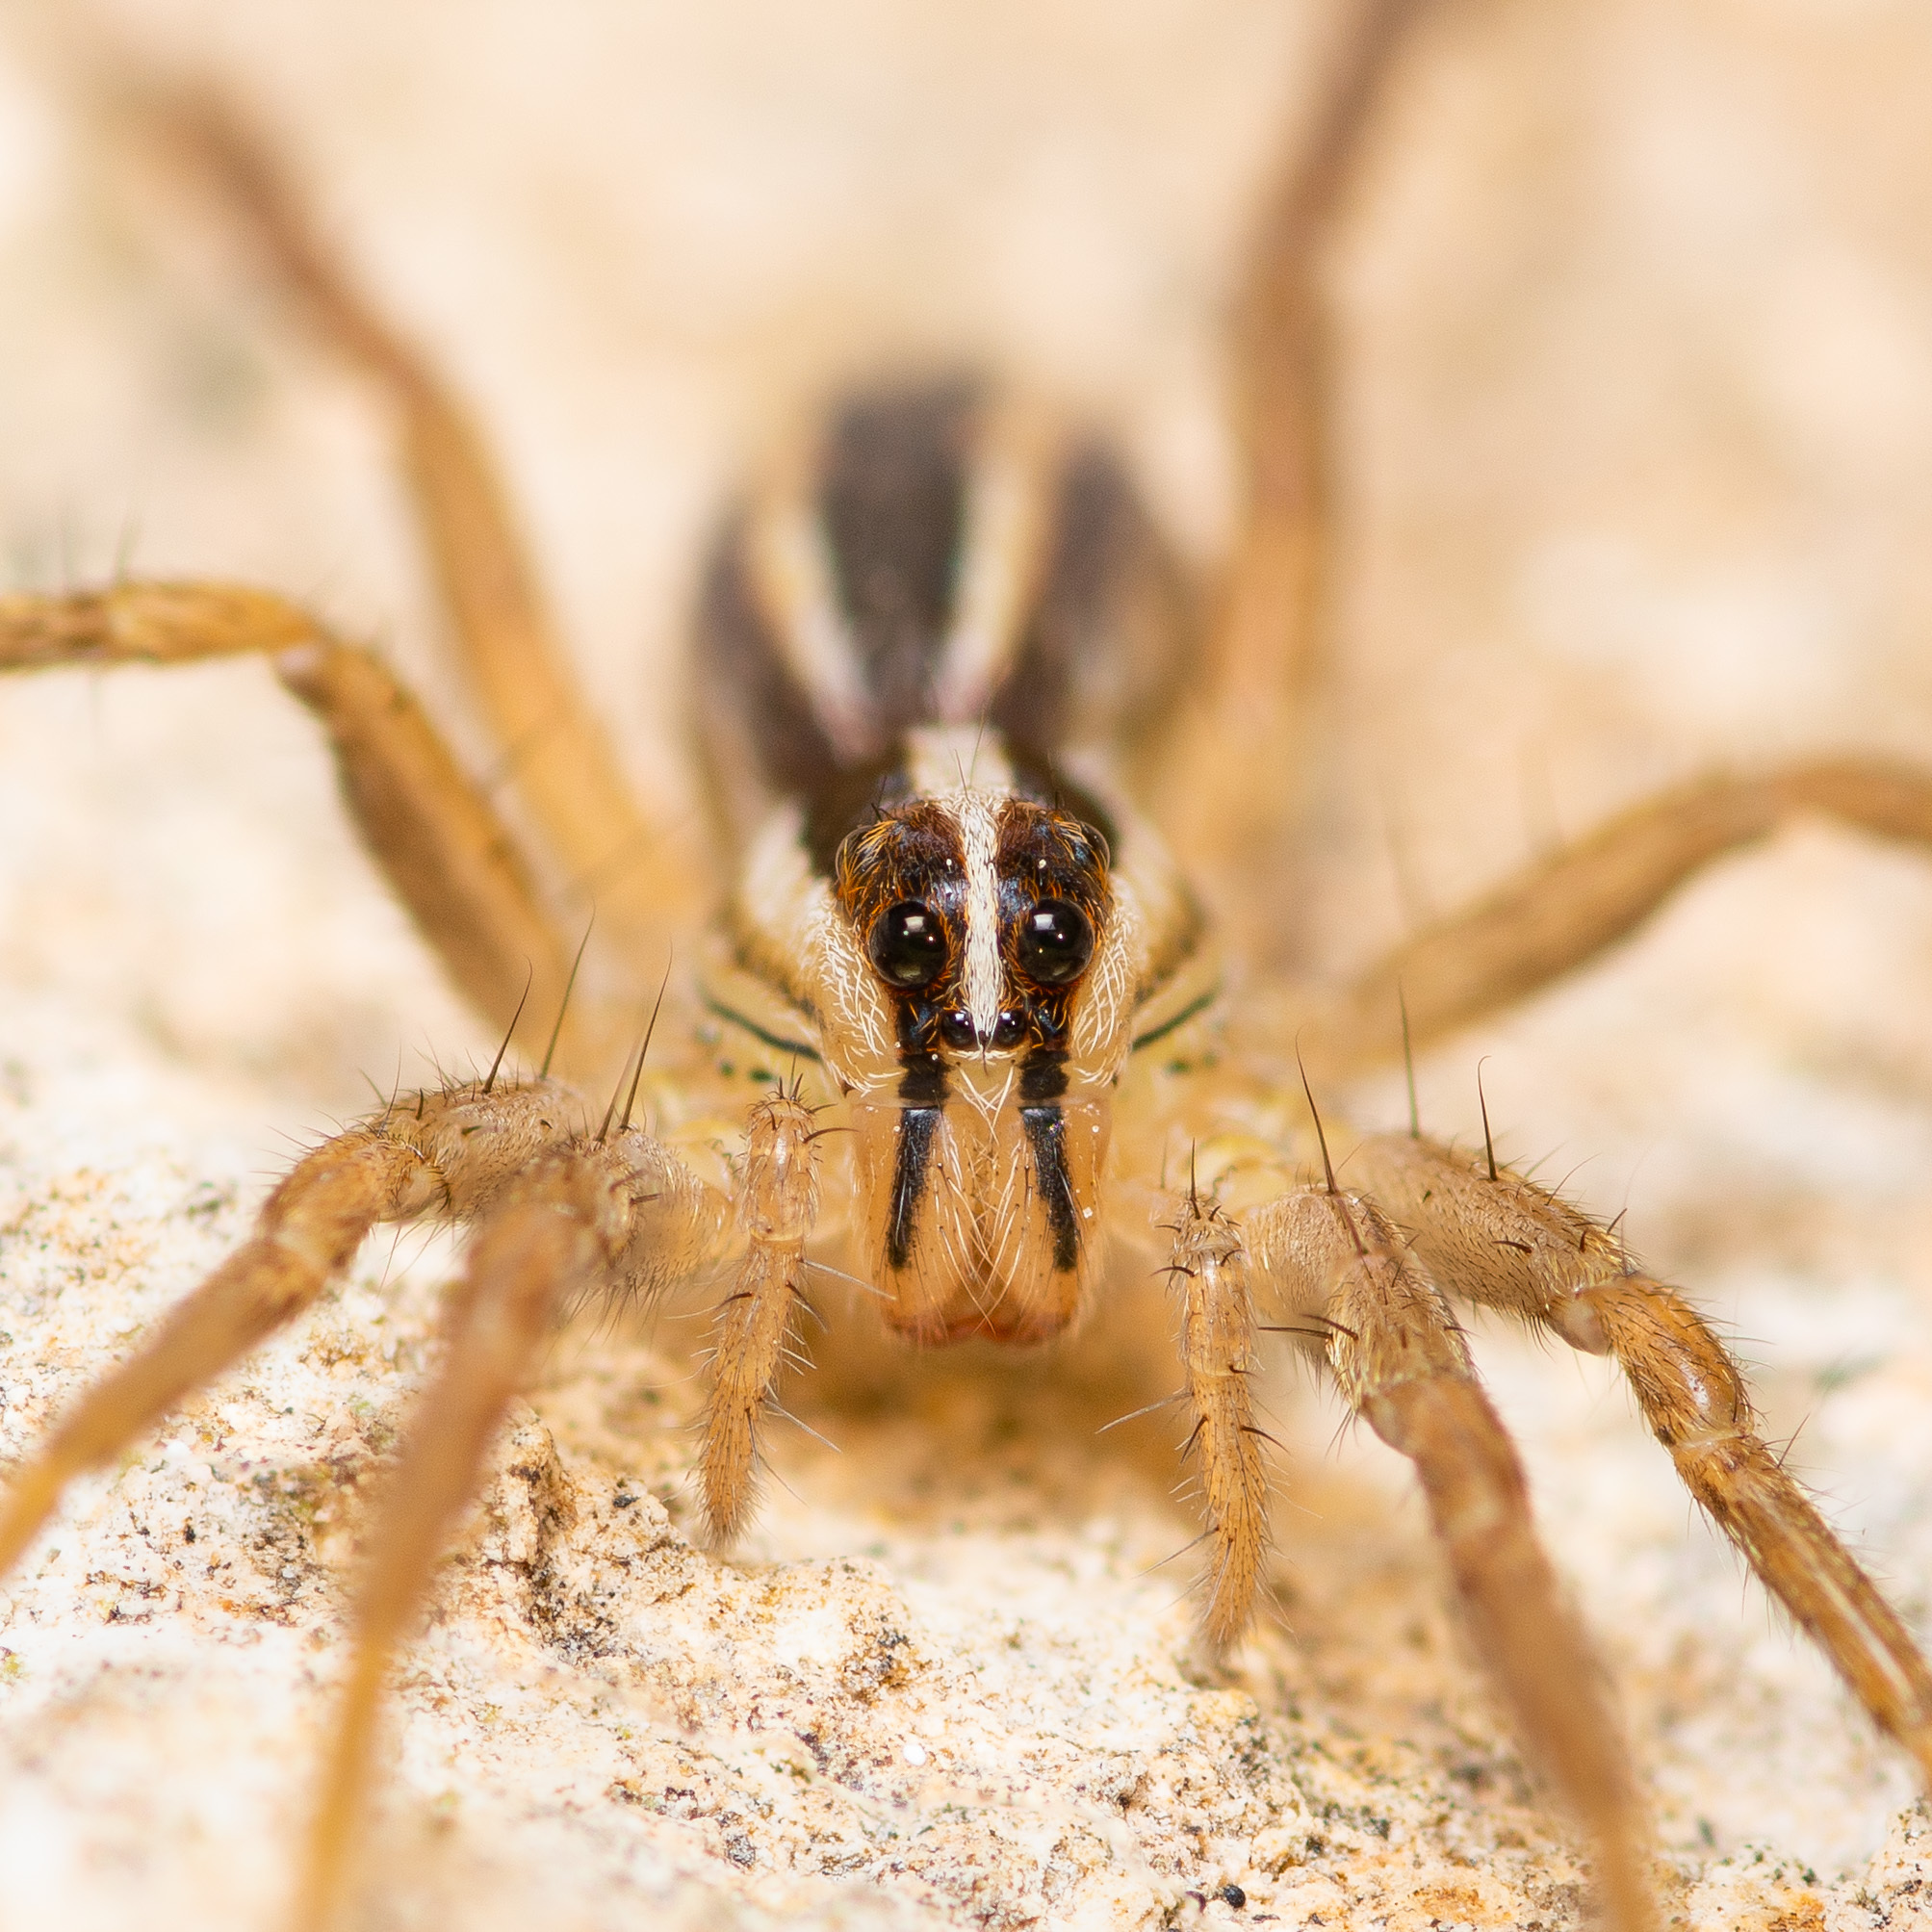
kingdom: Animalia
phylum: Arthropoda
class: Arachnida
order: Araneae
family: Lycosidae
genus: Rabidosa
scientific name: Rabidosa rabida
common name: Rabid wolf spider
